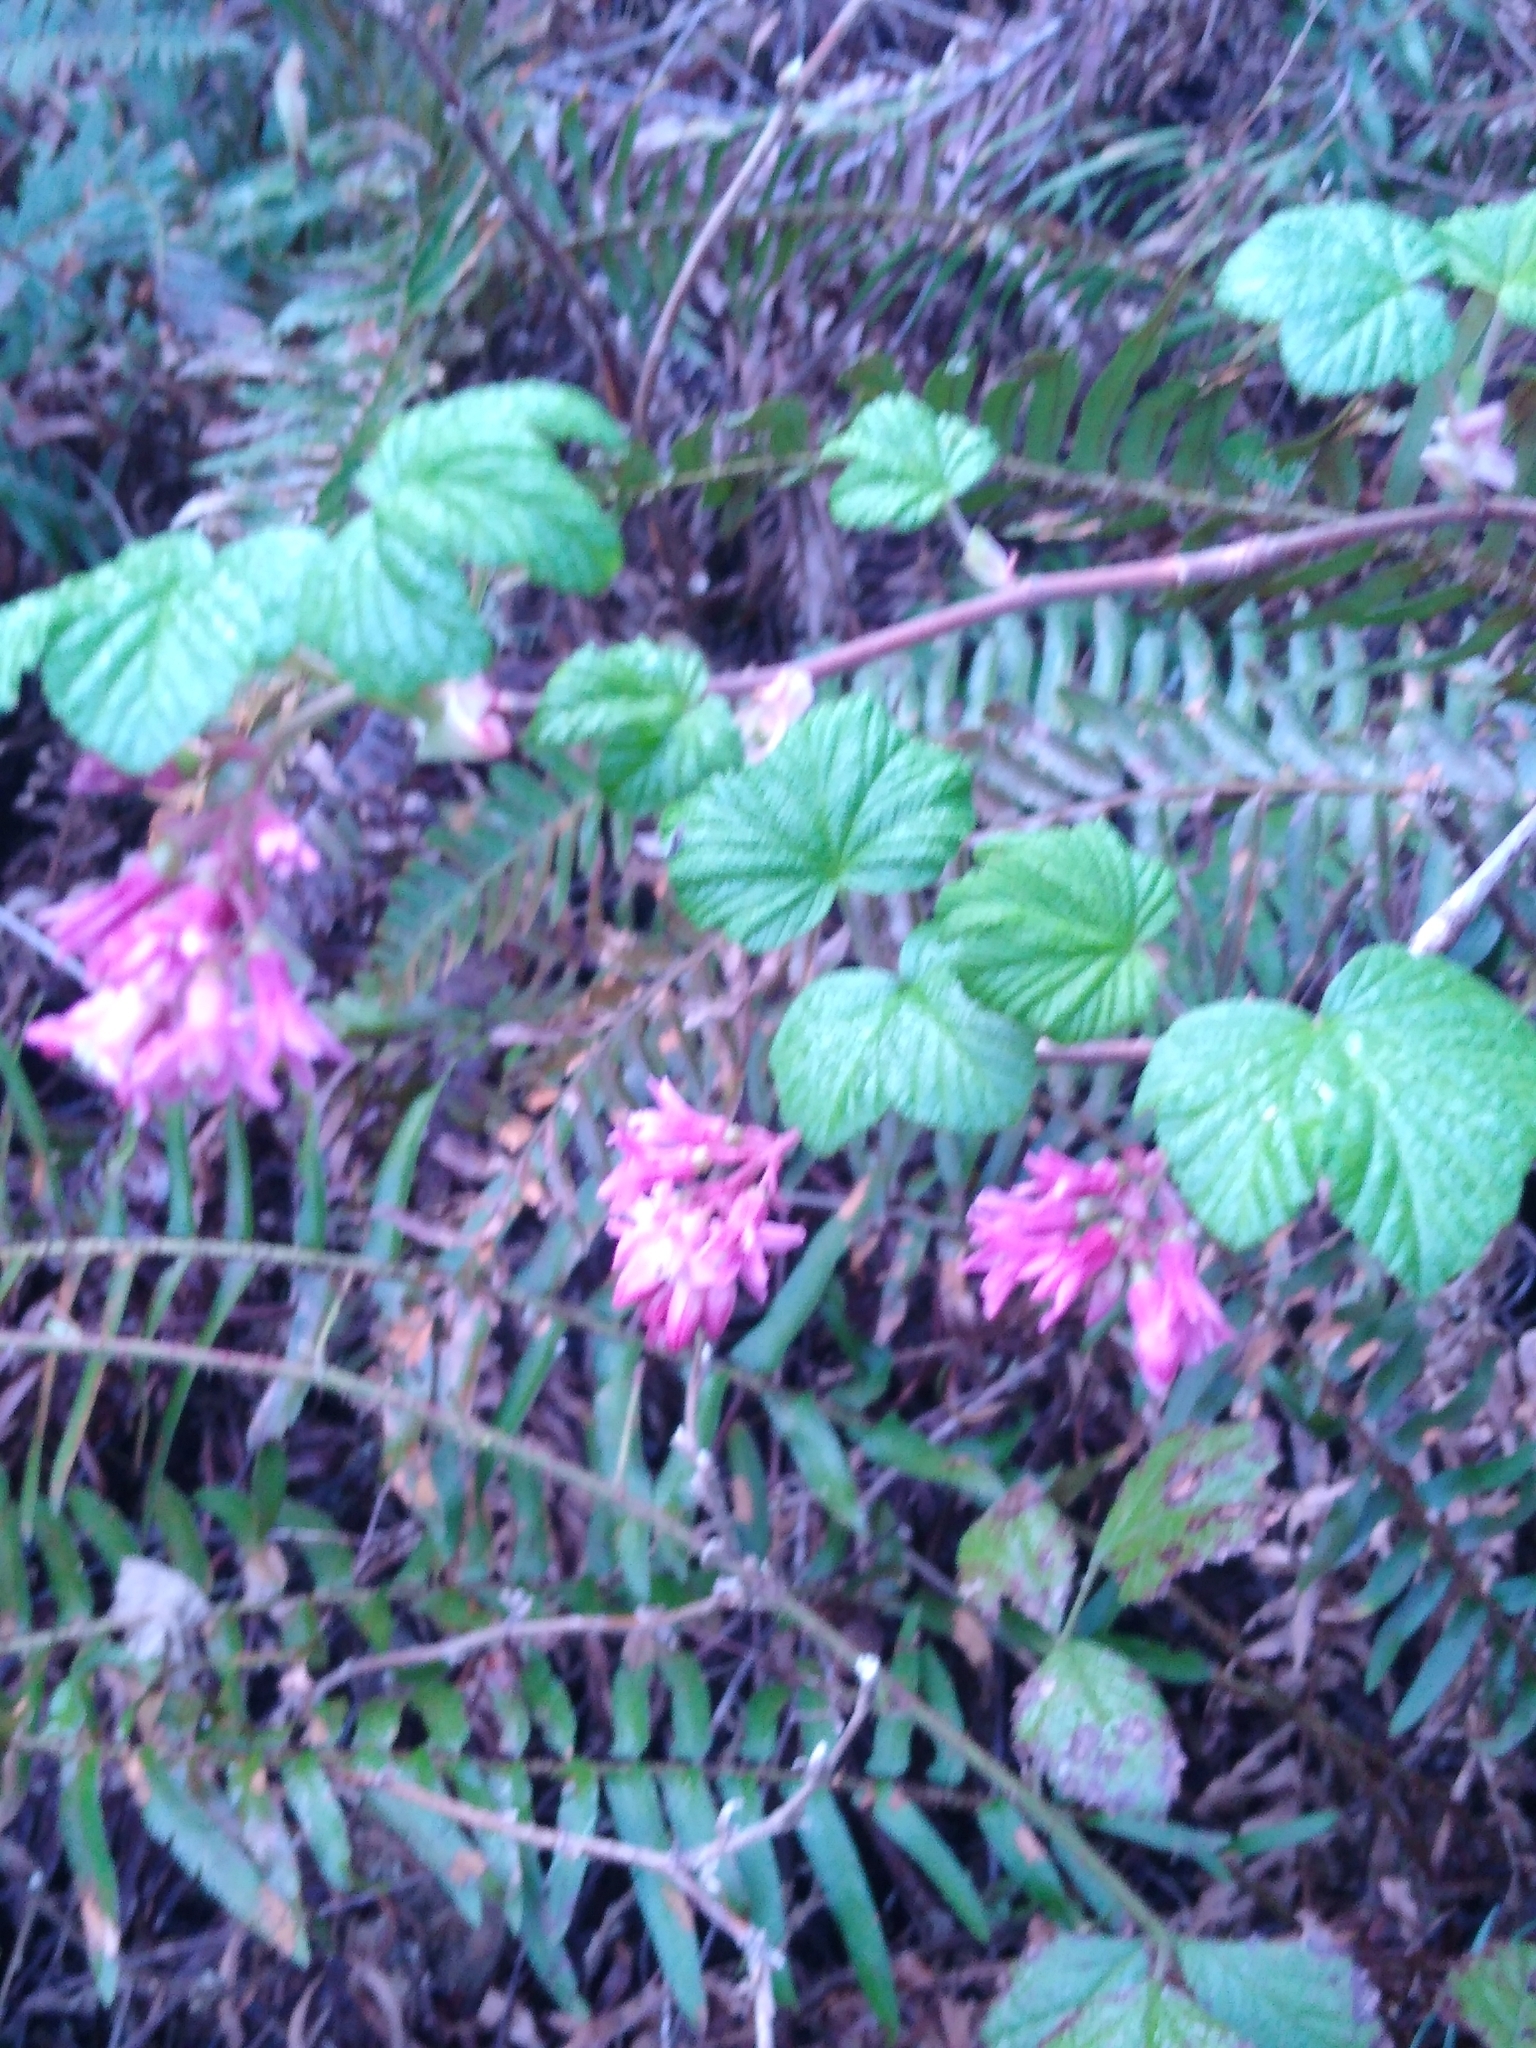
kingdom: Plantae
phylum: Tracheophyta
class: Magnoliopsida
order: Saxifragales
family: Grossulariaceae
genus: Ribes
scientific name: Ribes sanguineum
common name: Flowering currant
